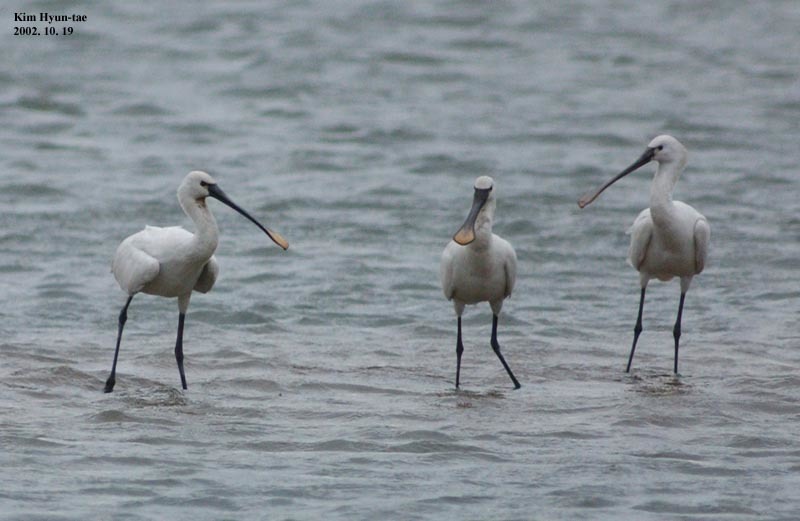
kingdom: Animalia
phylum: Chordata
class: Aves
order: Pelecaniformes
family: Threskiornithidae
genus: Platalea
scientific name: Platalea leucorodia
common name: Eurasian spoonbill
